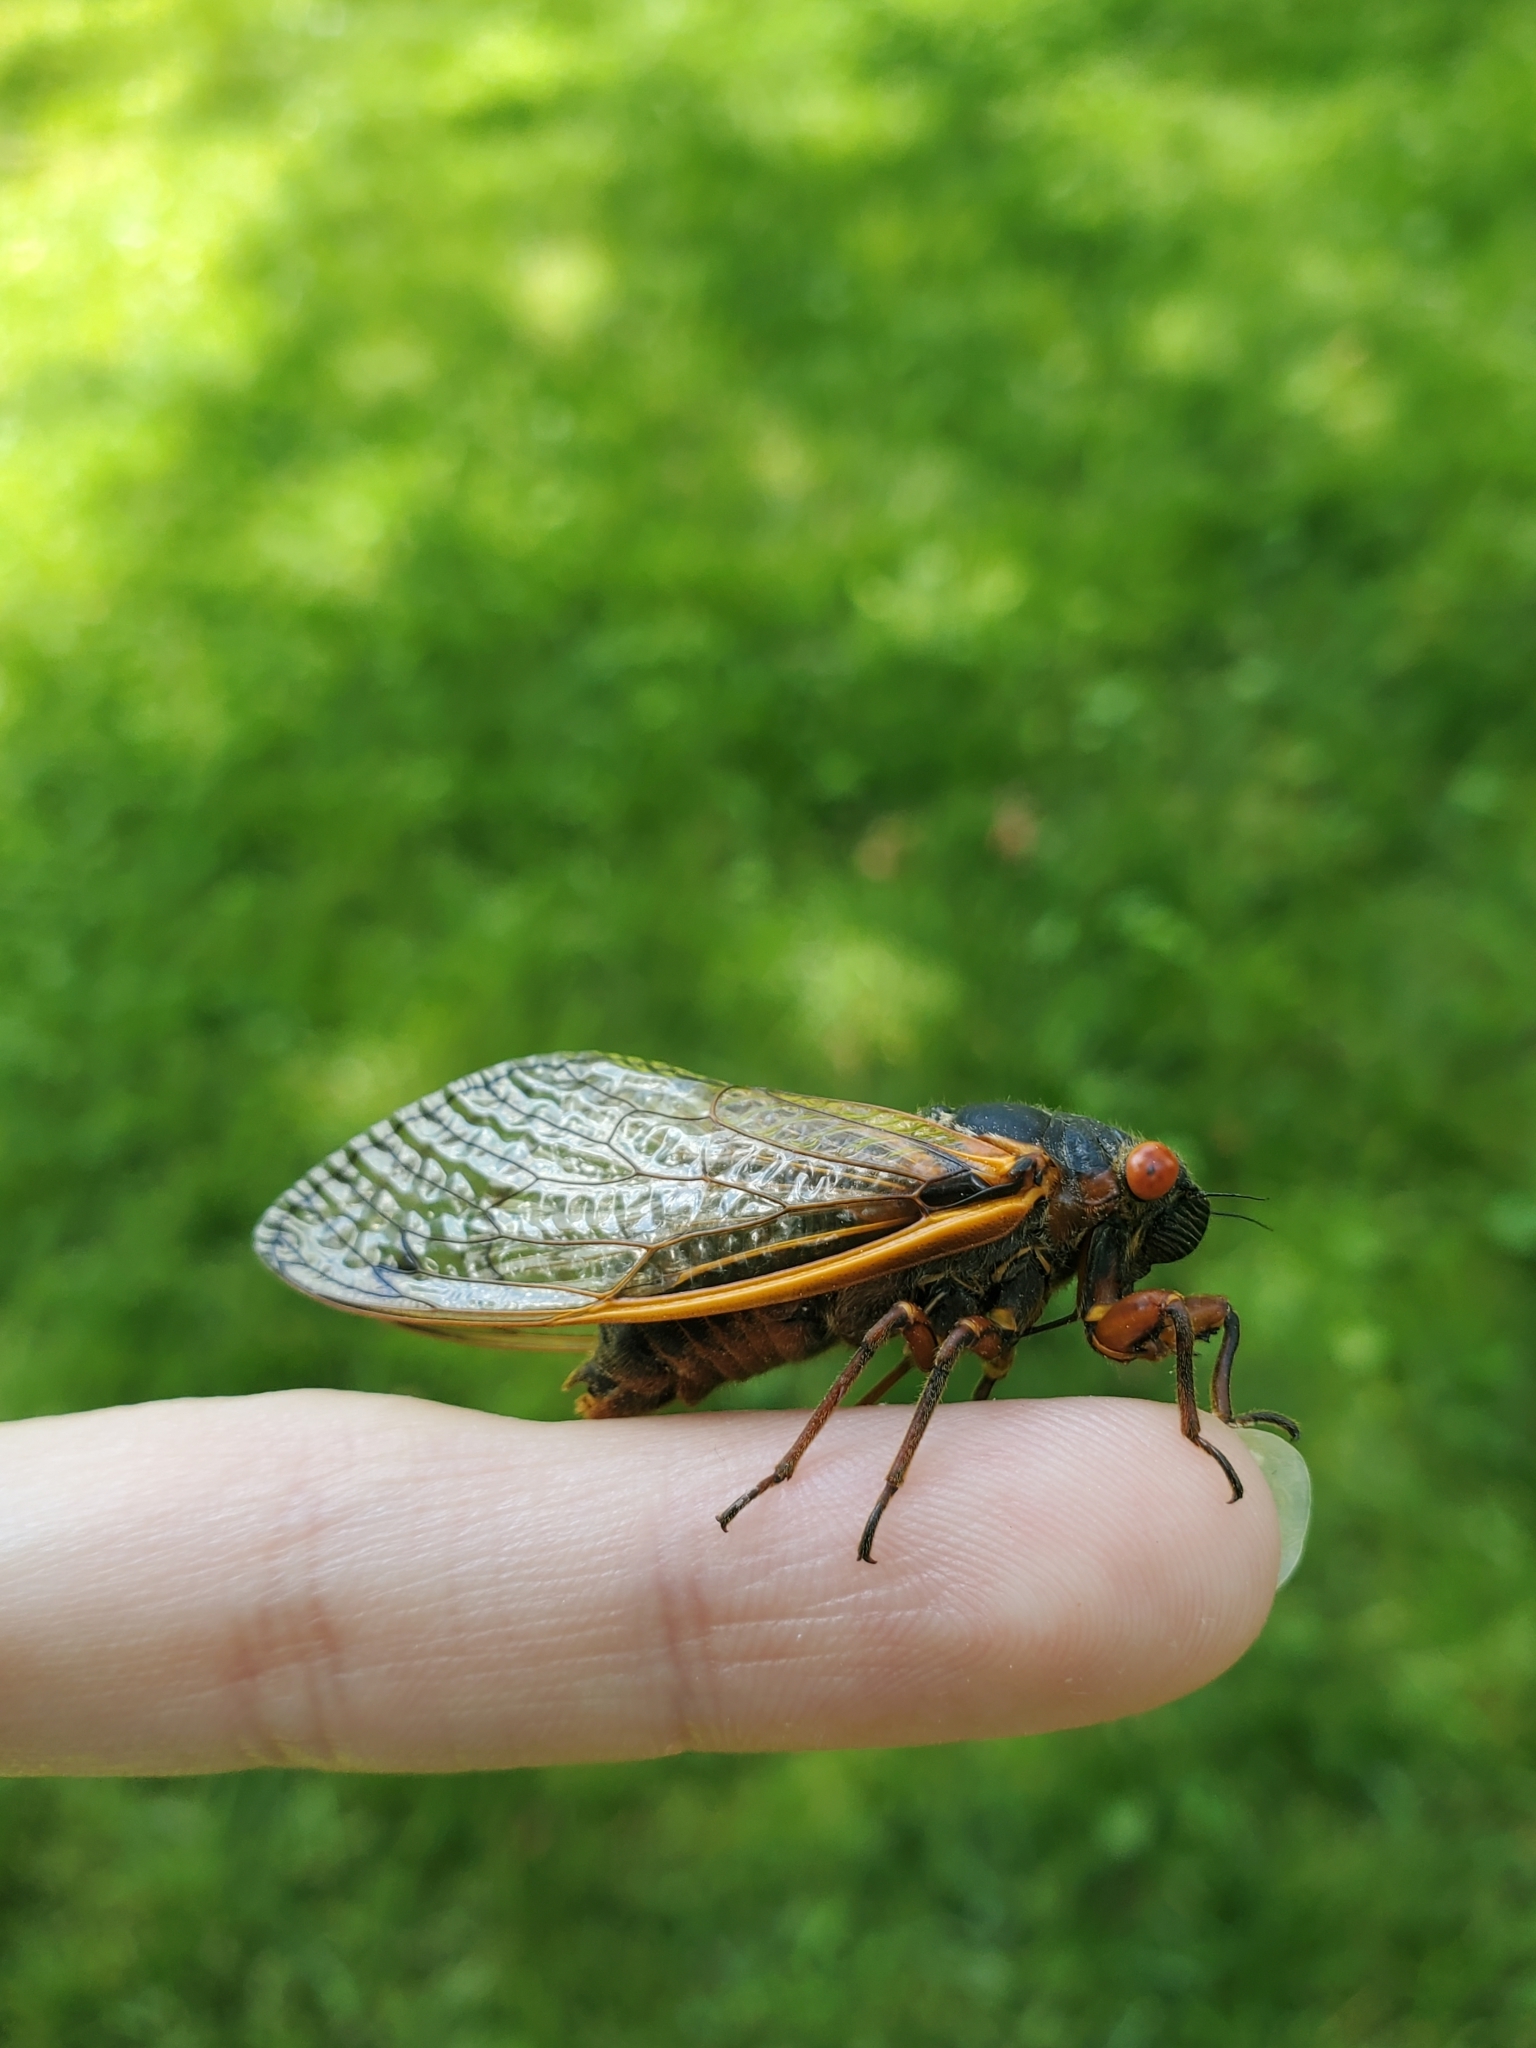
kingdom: Animalia
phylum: Arthropoda
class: Insecta
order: Hemiptera
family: Cicadidae
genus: Magicicada
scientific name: Magicicada septendecim
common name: Periodical cicada
